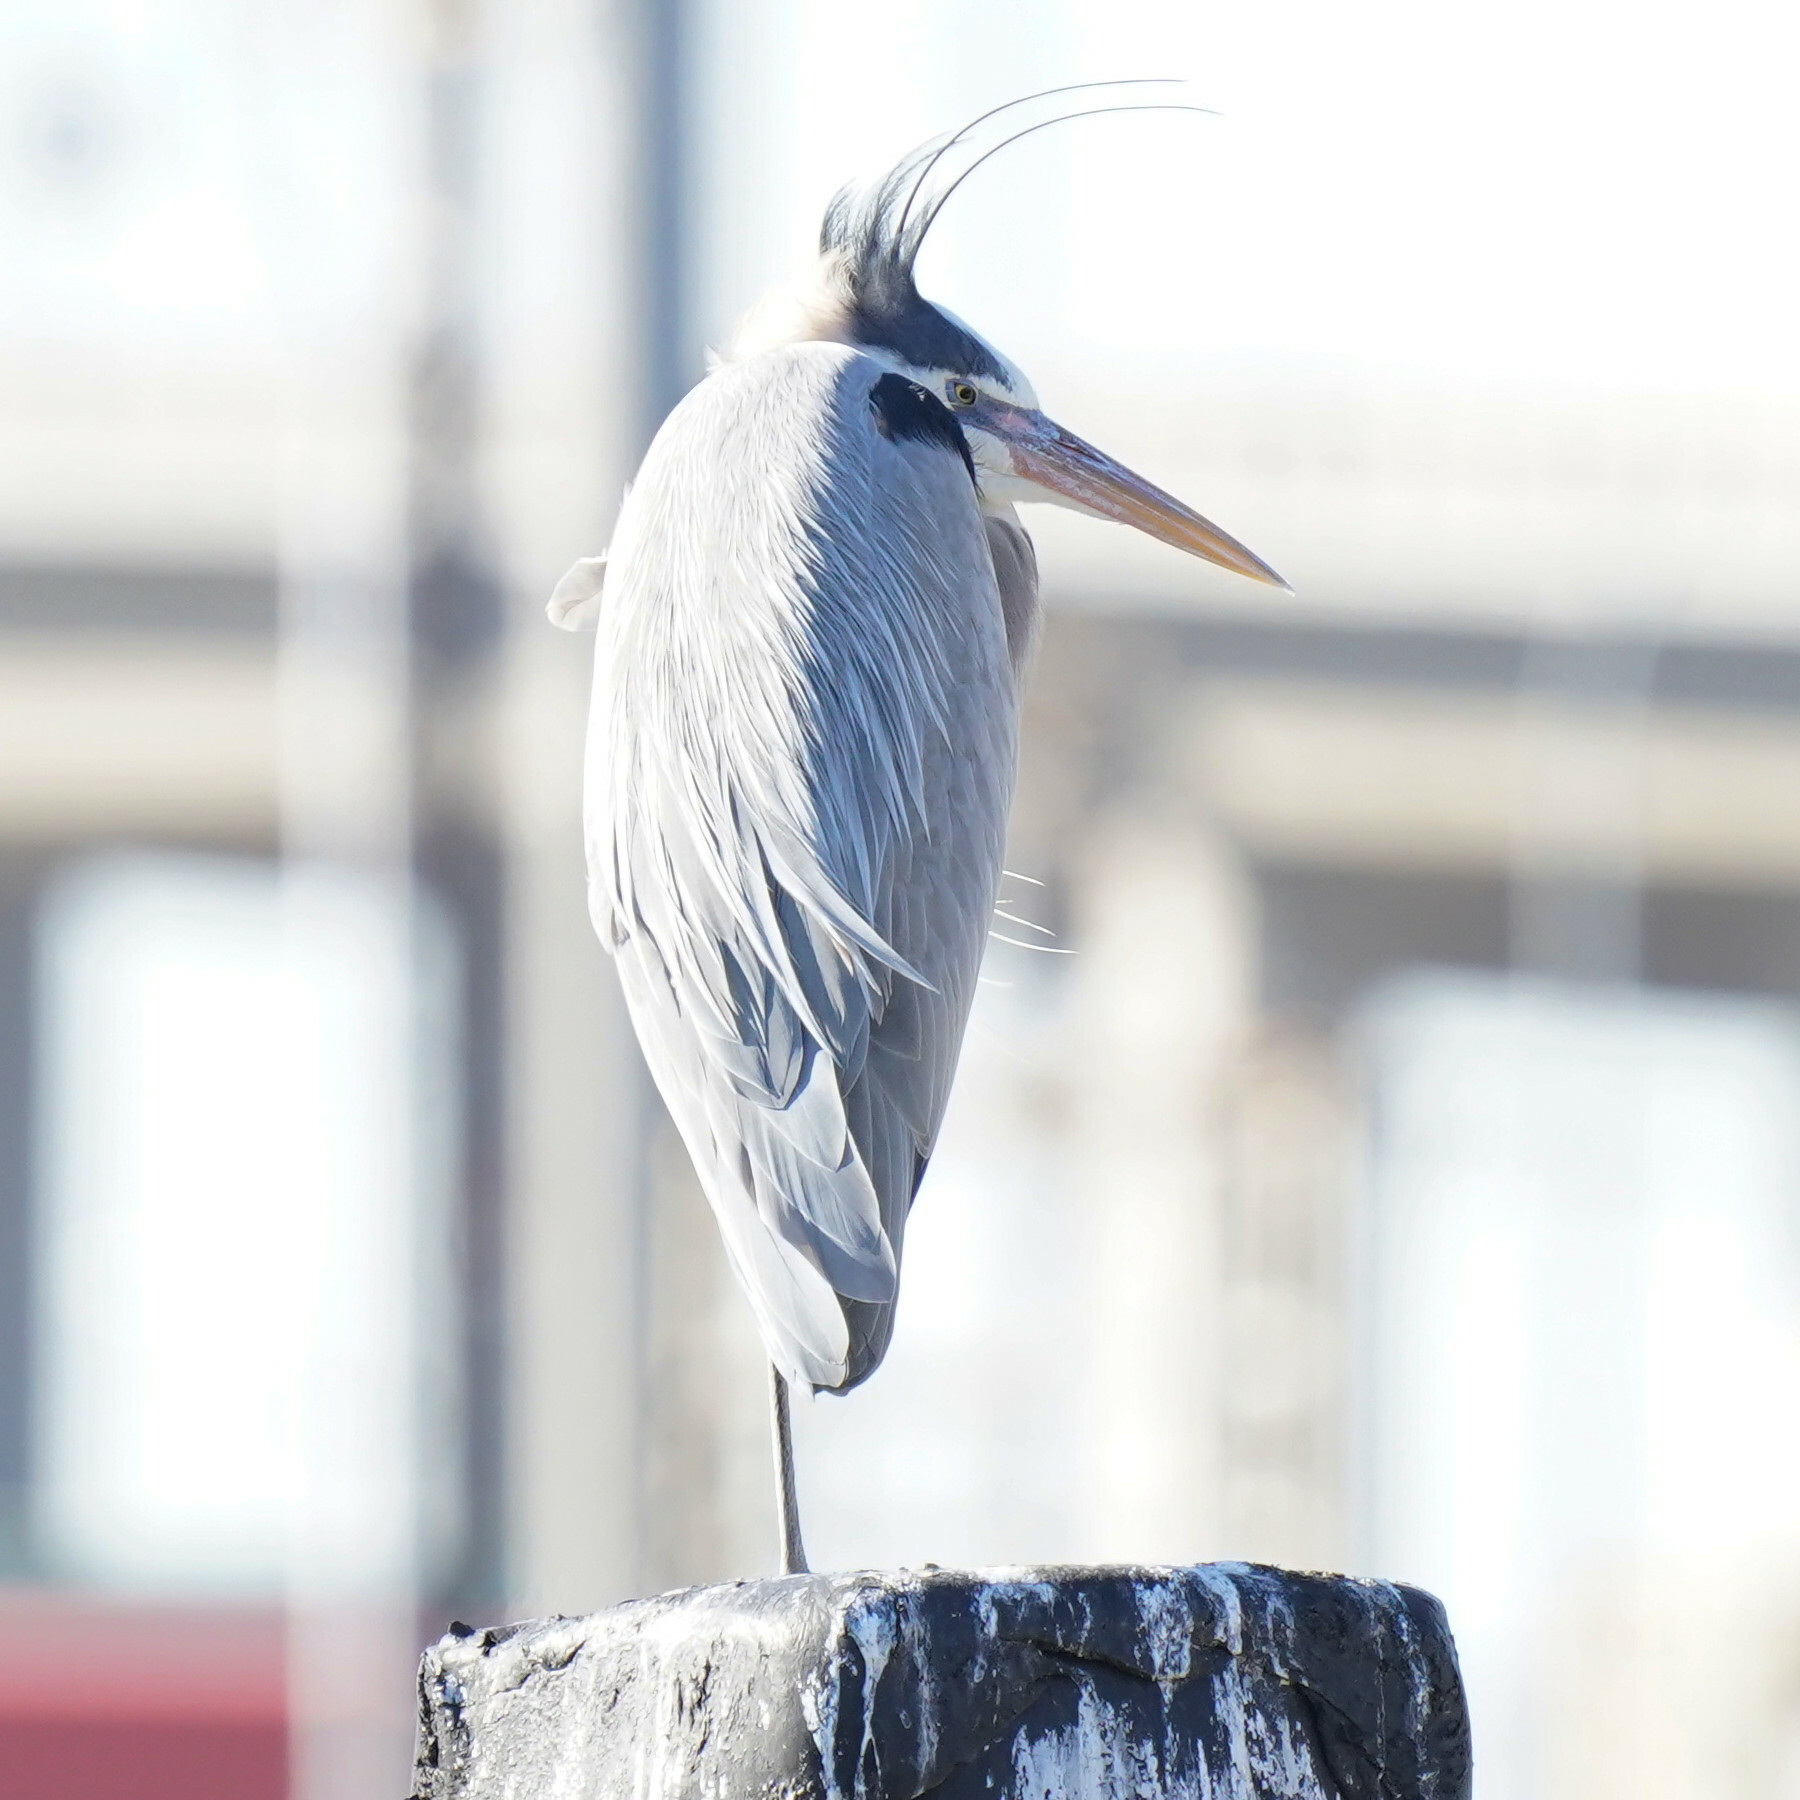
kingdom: Animalia
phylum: Chordata
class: Aves
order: Pelecaniformes
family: Ardeidae
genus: Ardea
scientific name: Ardea herodias
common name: Great blue heron
